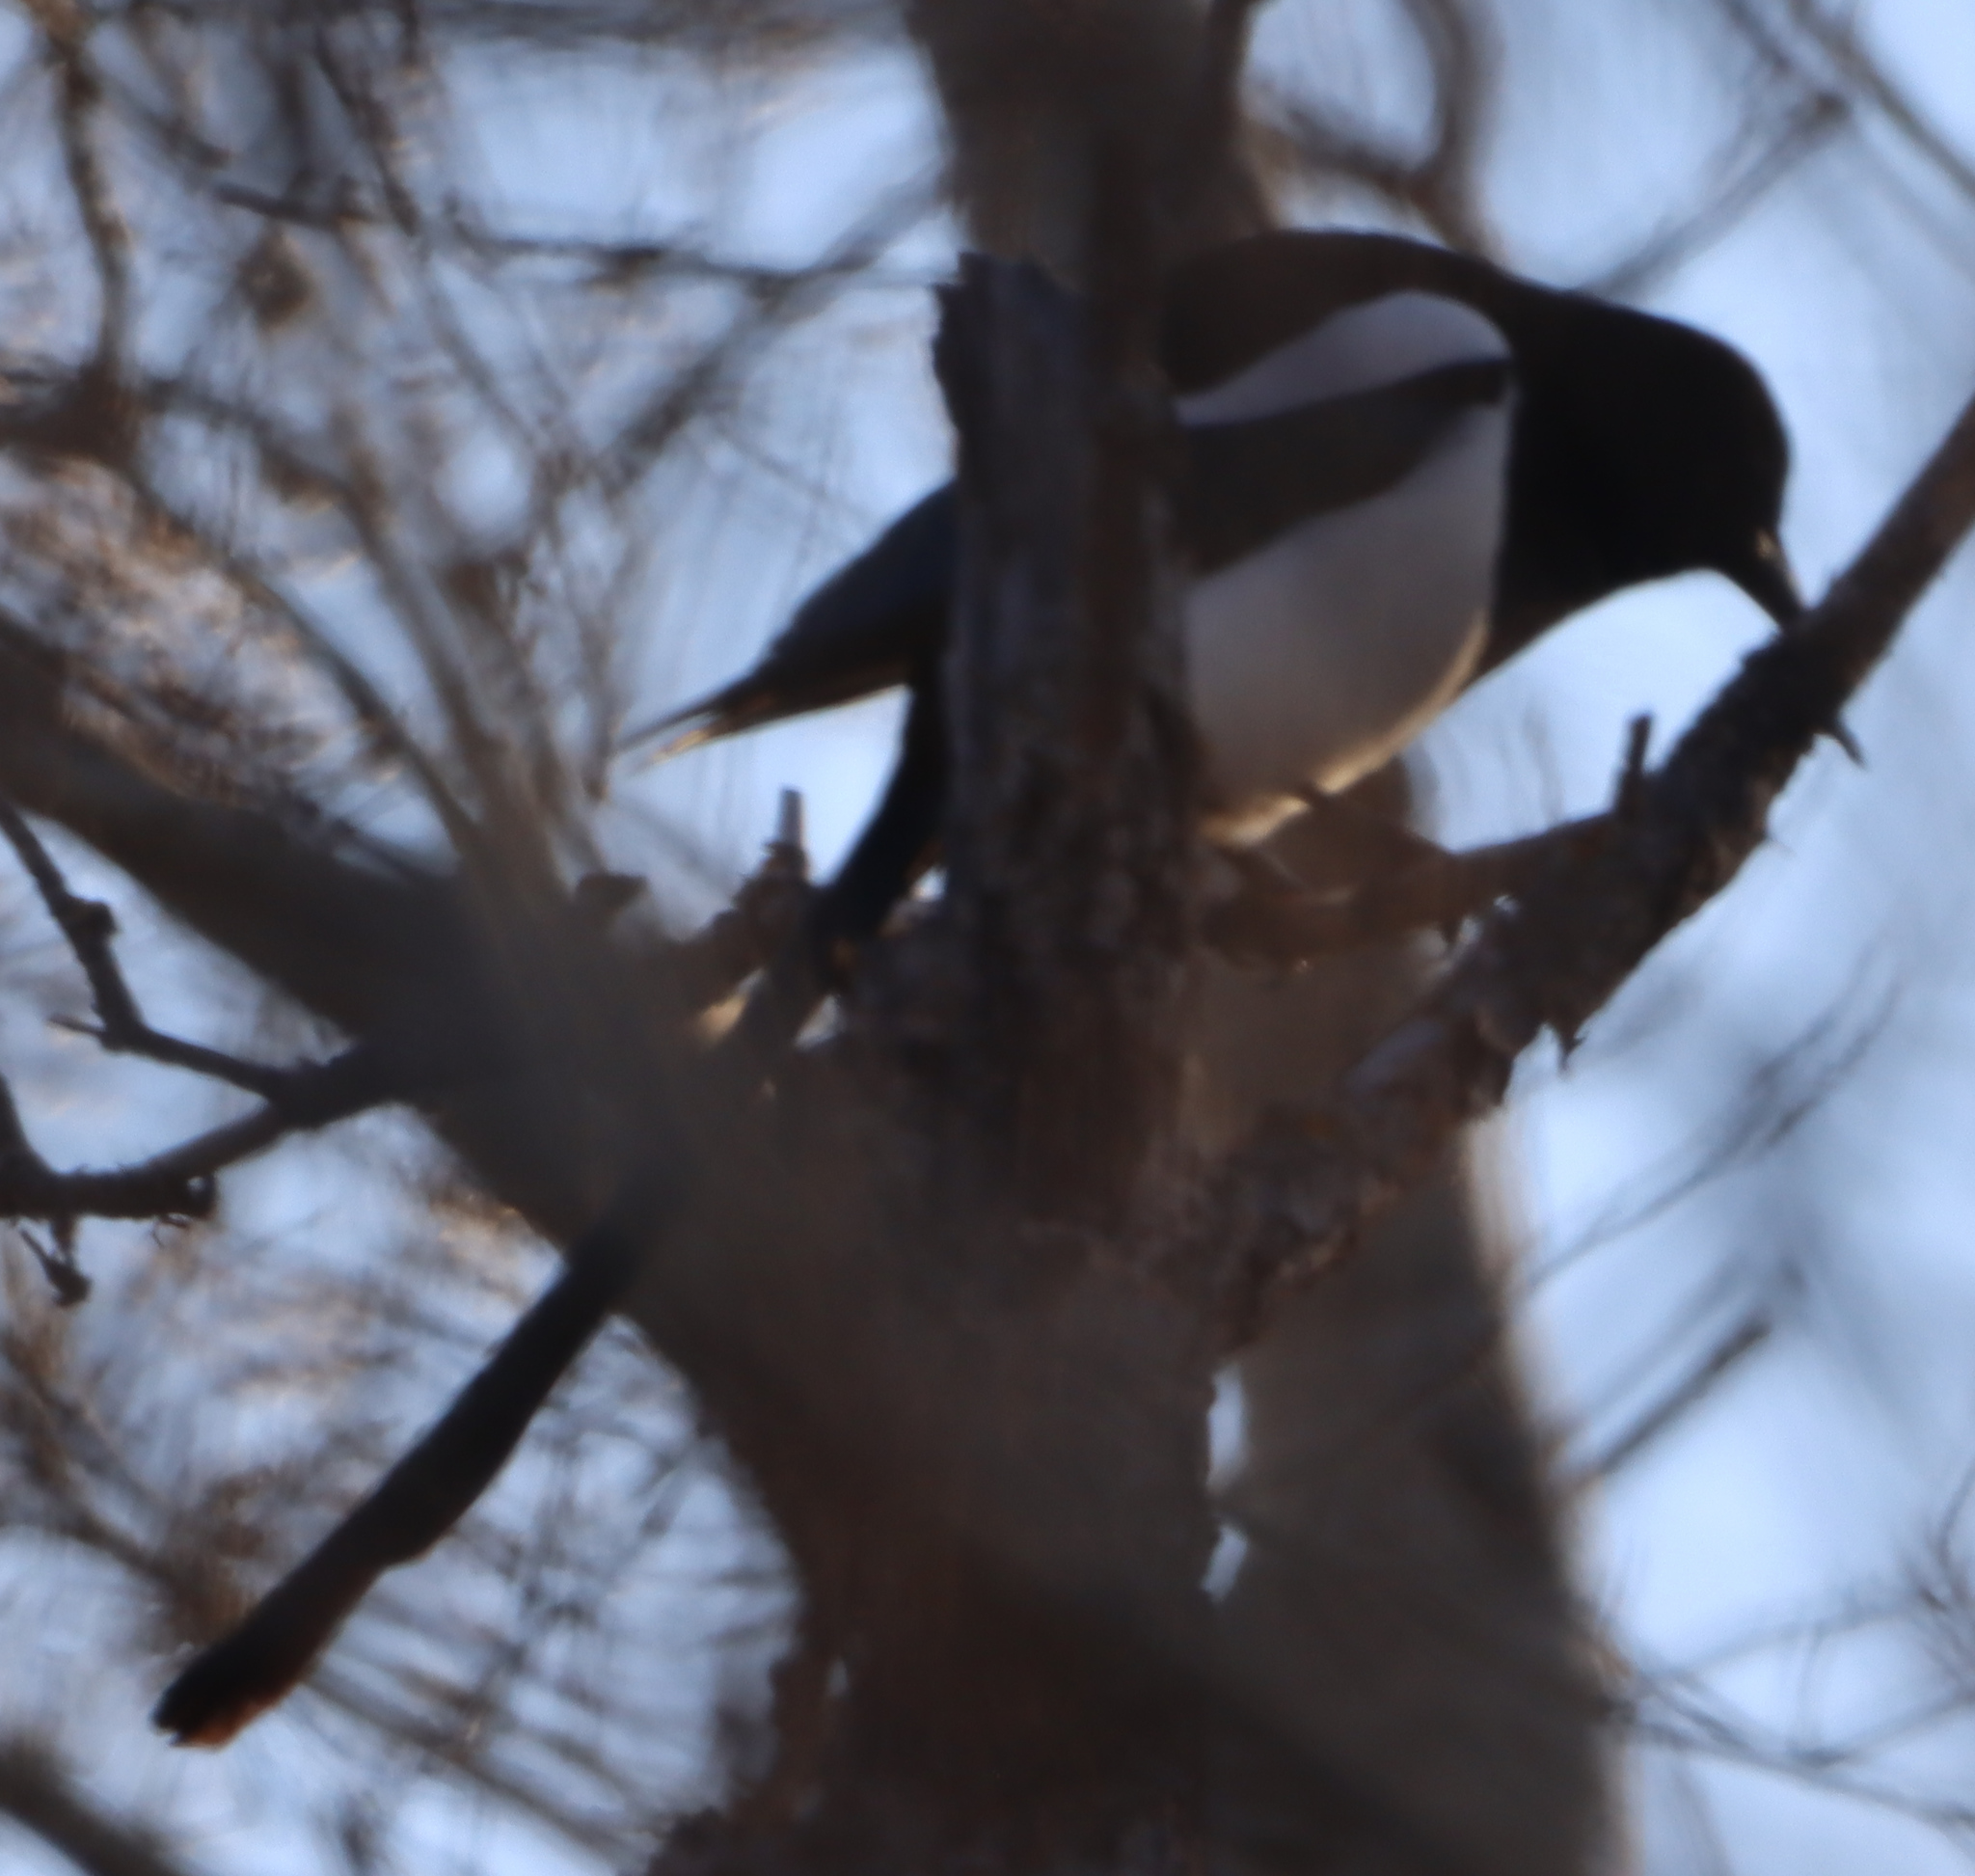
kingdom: Animalia
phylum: Chordata
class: Aves
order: Passeriformes
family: Corvidae
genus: Pica
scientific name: Pica hudsonia
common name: Black-billed magpie
